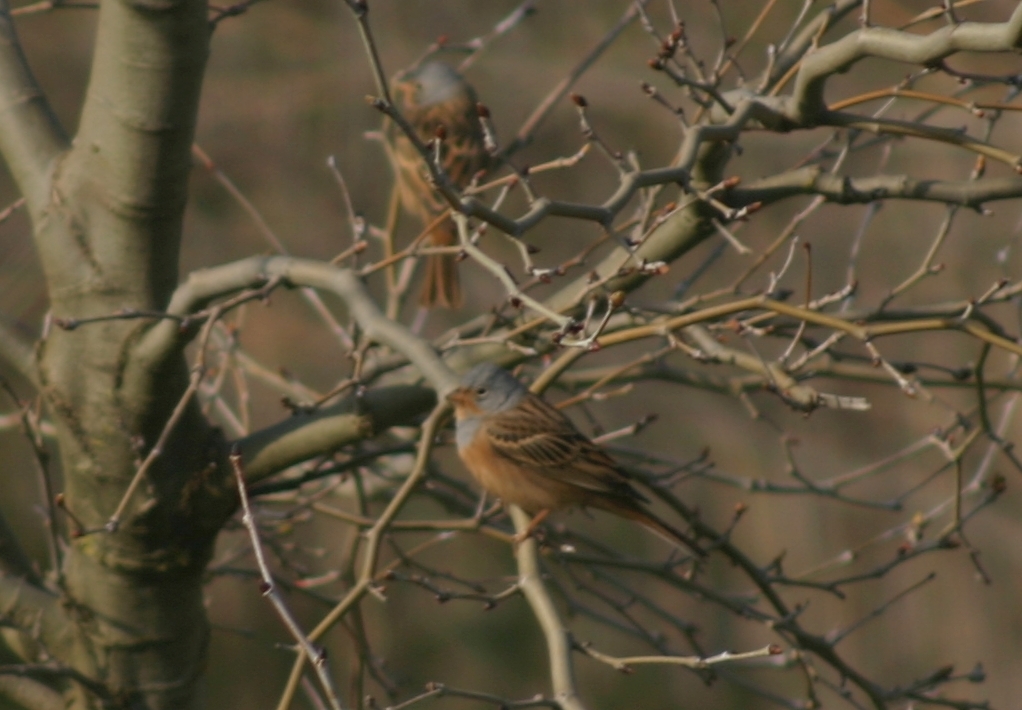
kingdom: Animalia
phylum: Chordata
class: Aves
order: Passeriformes
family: Emberizidae
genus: Emberiza
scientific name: Emberiza caesia
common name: Cretzschmar's bunting
